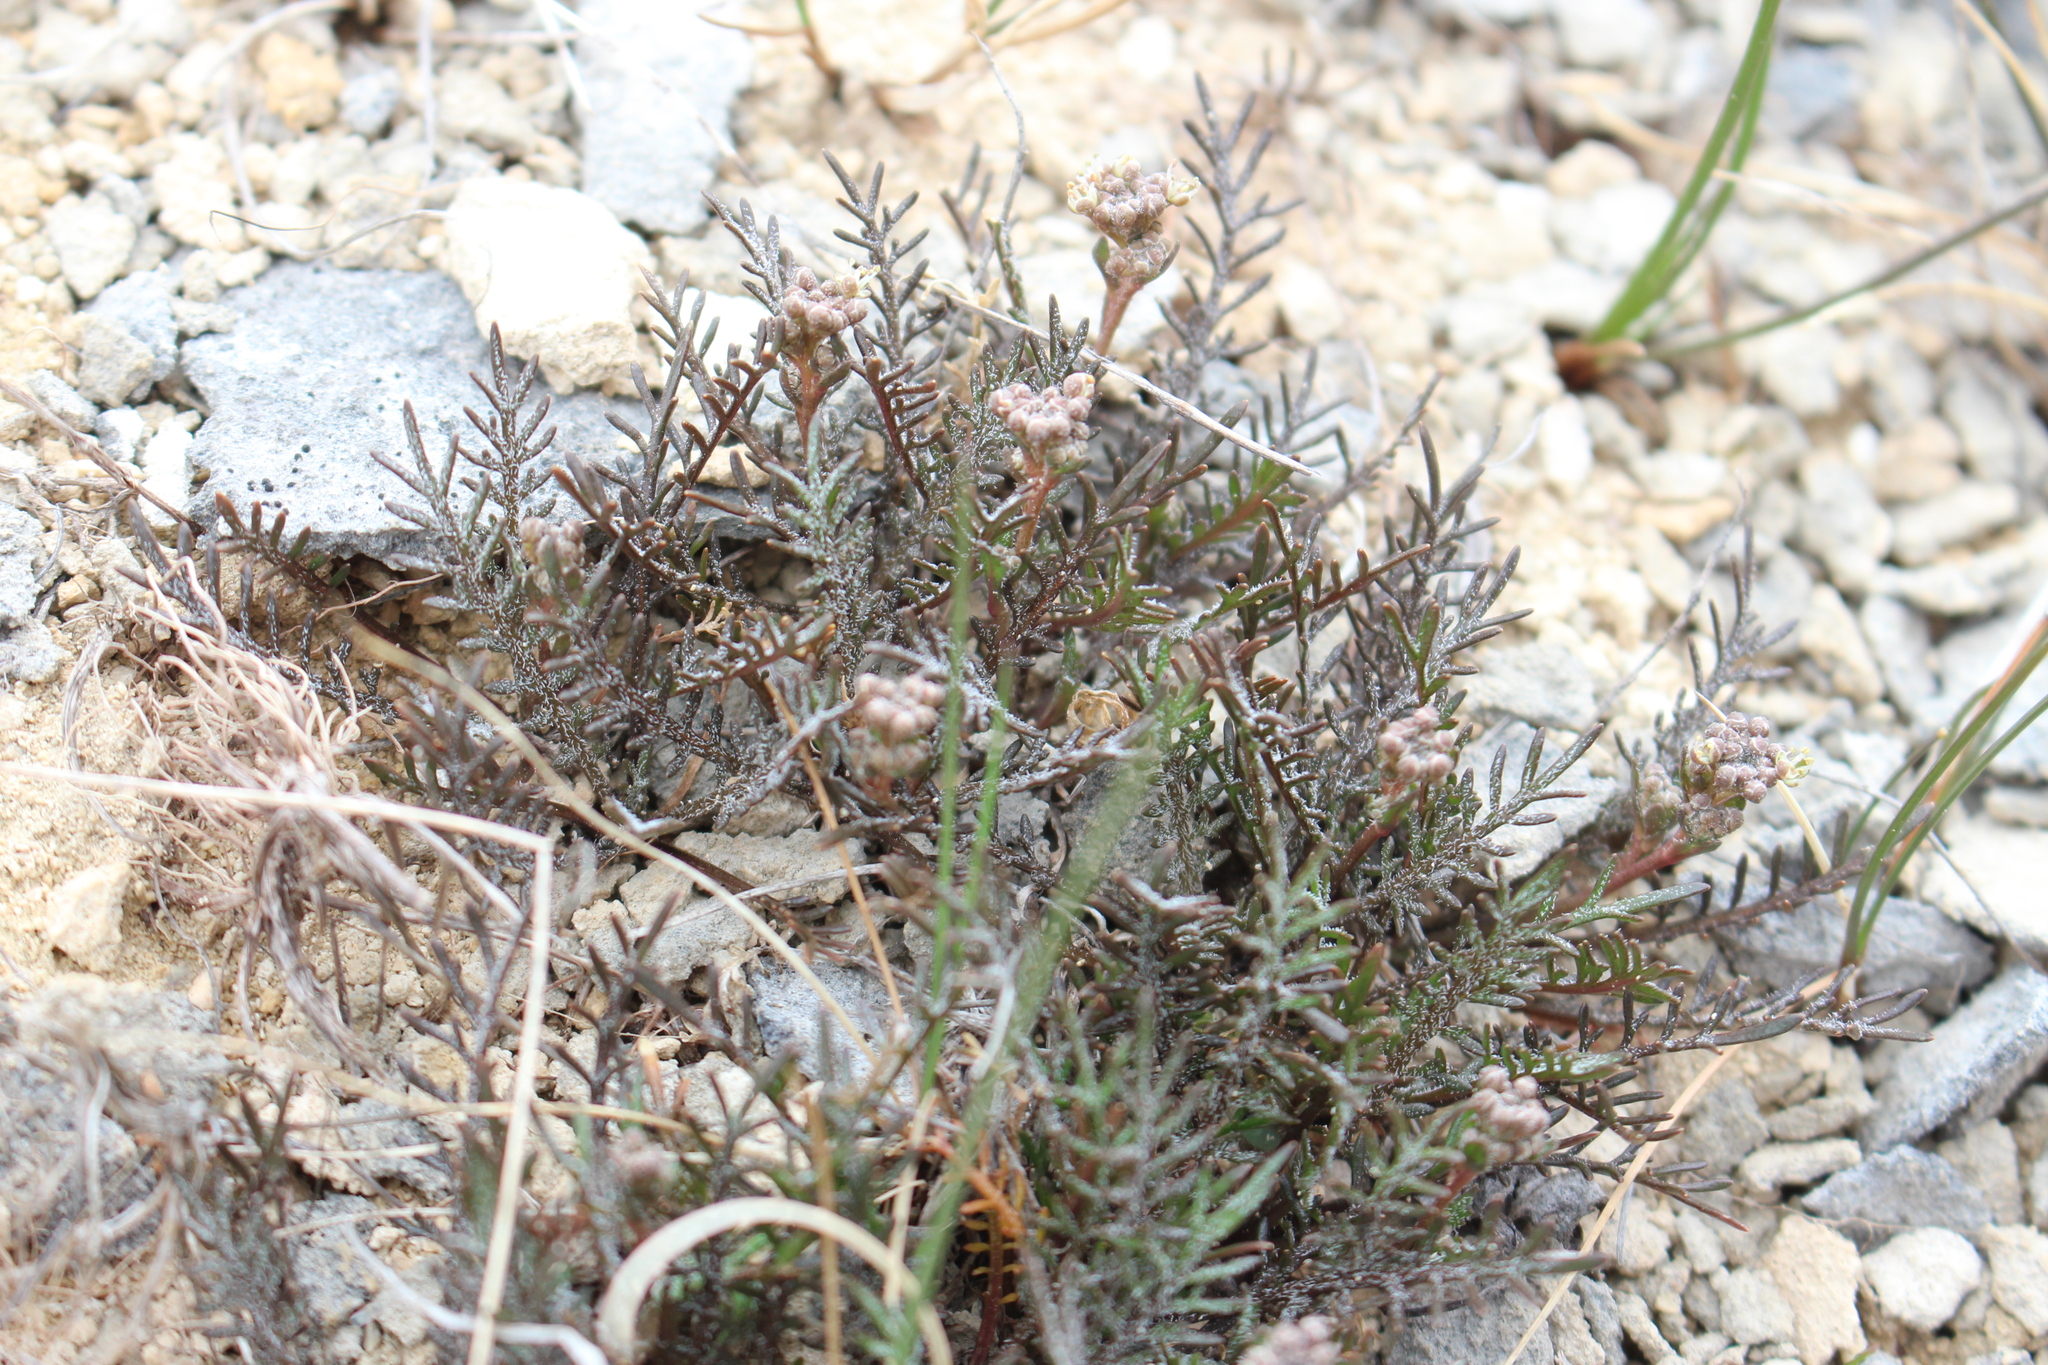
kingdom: Plantae
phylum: Tracheophyta
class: Magnoliopsida
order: Brassicales
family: Brassicaceae
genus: Lepidium
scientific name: Lepidium sisymbrioides
